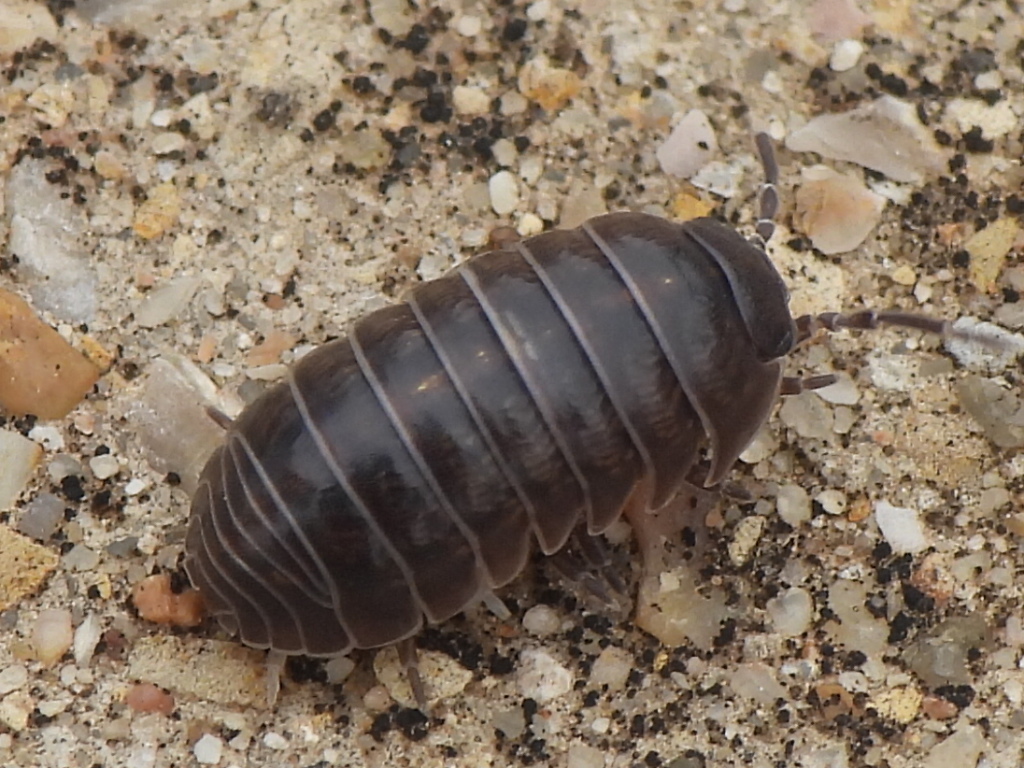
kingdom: Animalia
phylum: Arthropoda
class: Malacostraca
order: Isopoda
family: Armadillidiidae
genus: Armadillidium
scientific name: Armadillidium vulgare
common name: Common pill woodlouse
